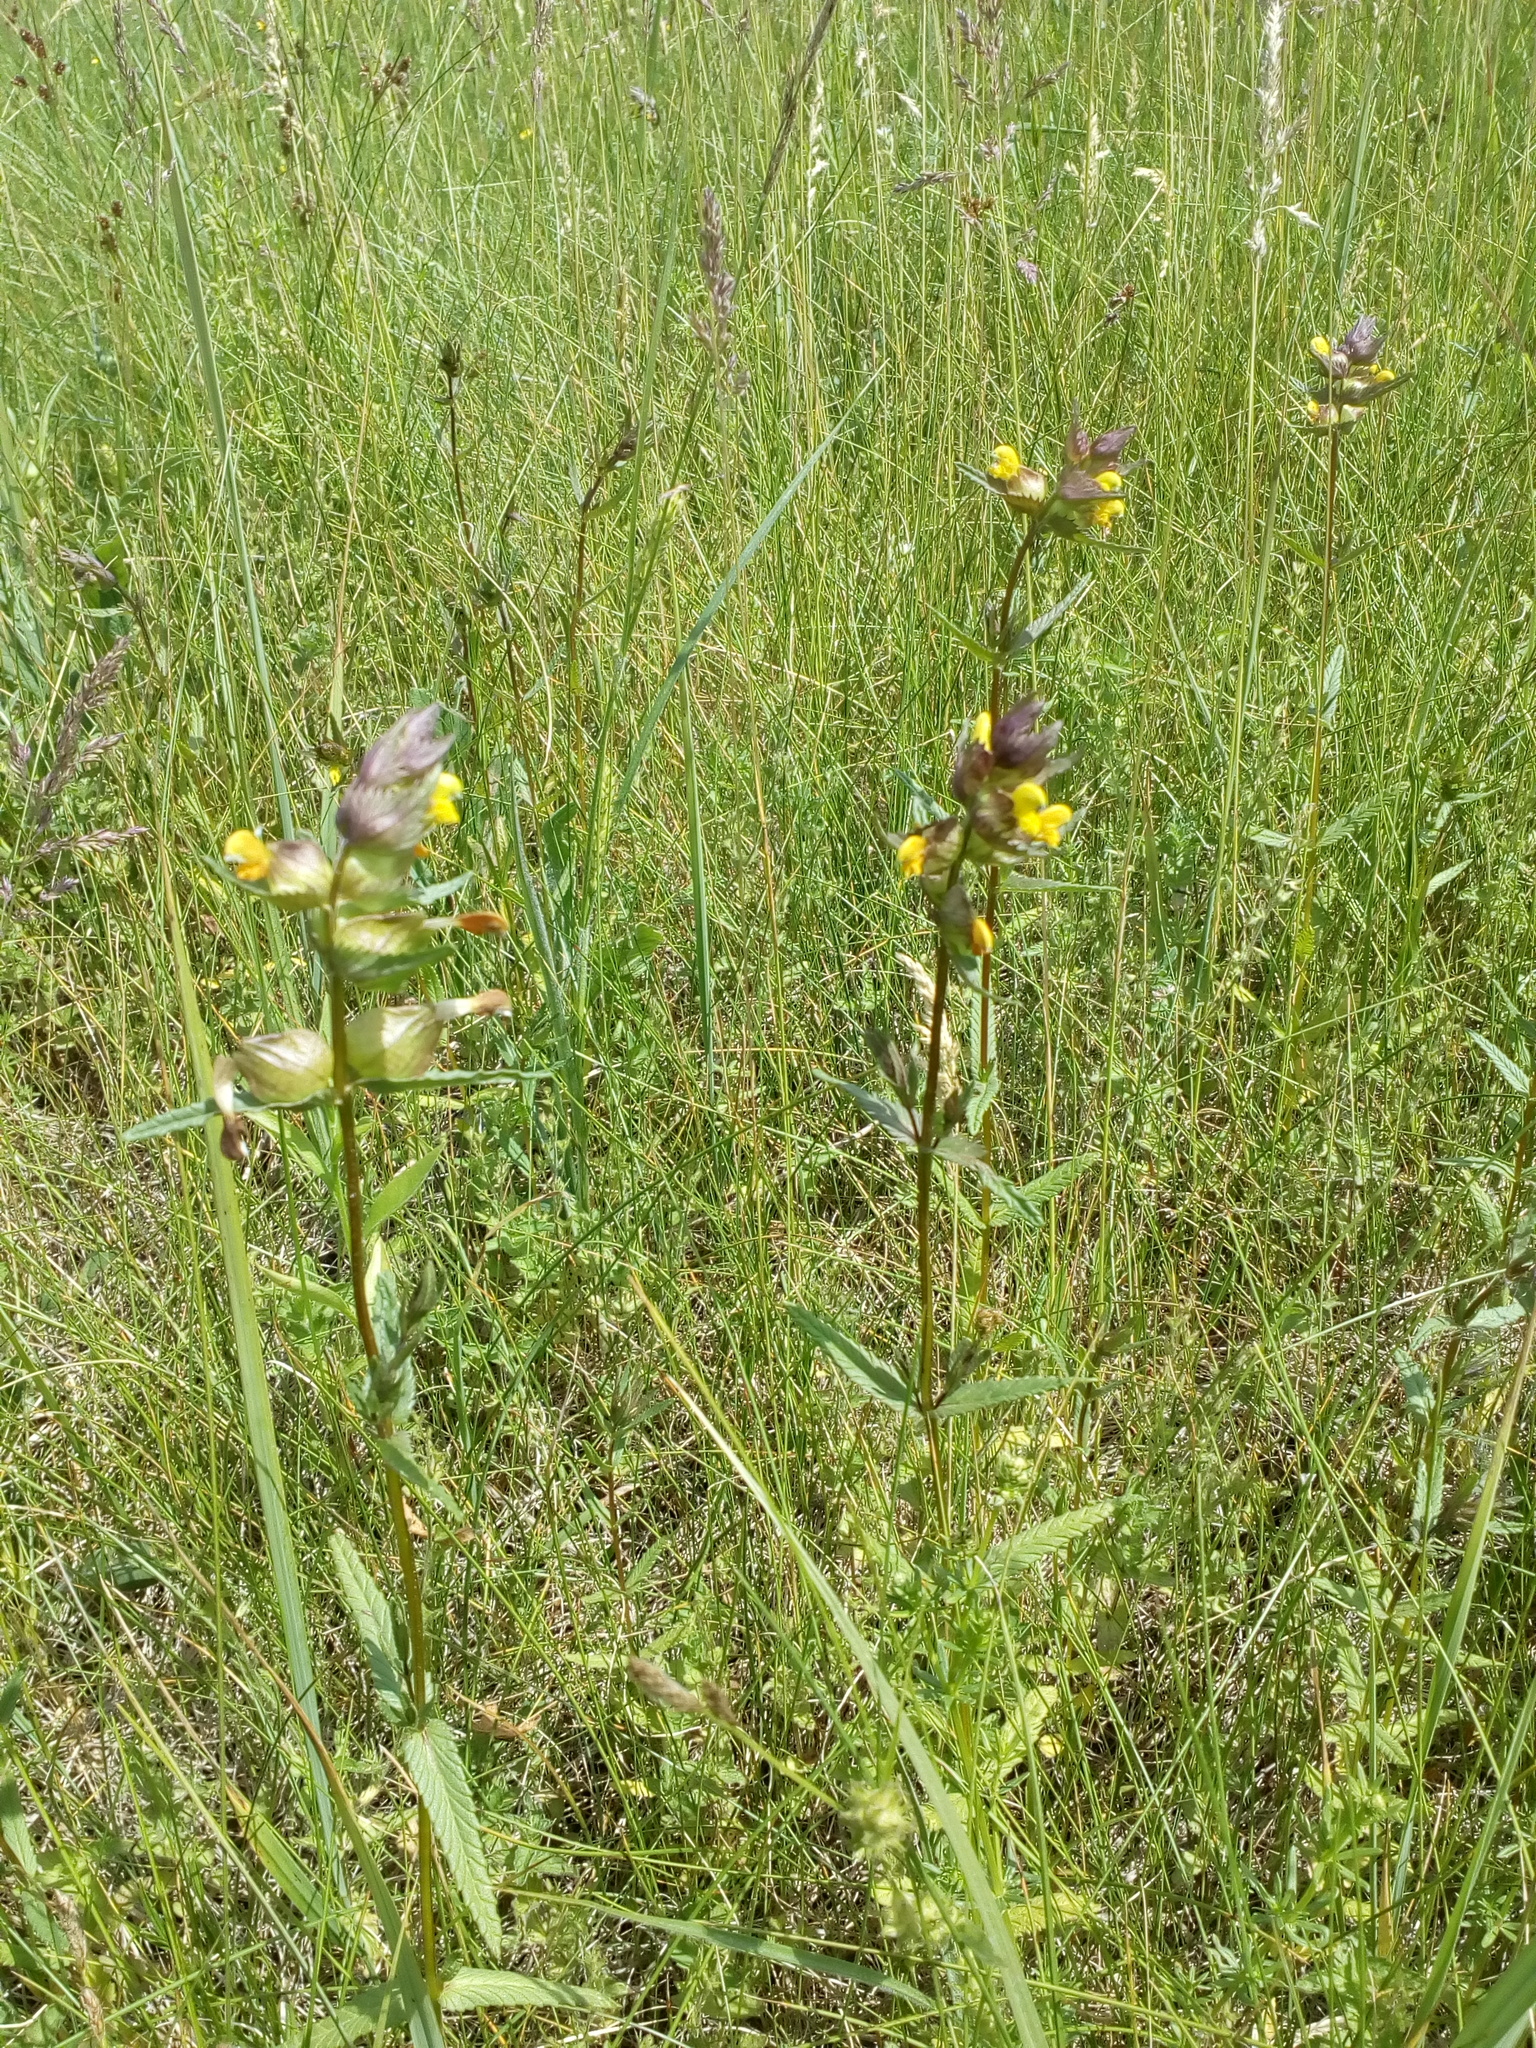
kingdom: Plantae
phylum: Tracheophyta
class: Magnoliopsida
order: Lamiales
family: Orobanchaceae
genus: Rhinanthus
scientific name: Rhinanthus minor
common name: Yellow-rattle
